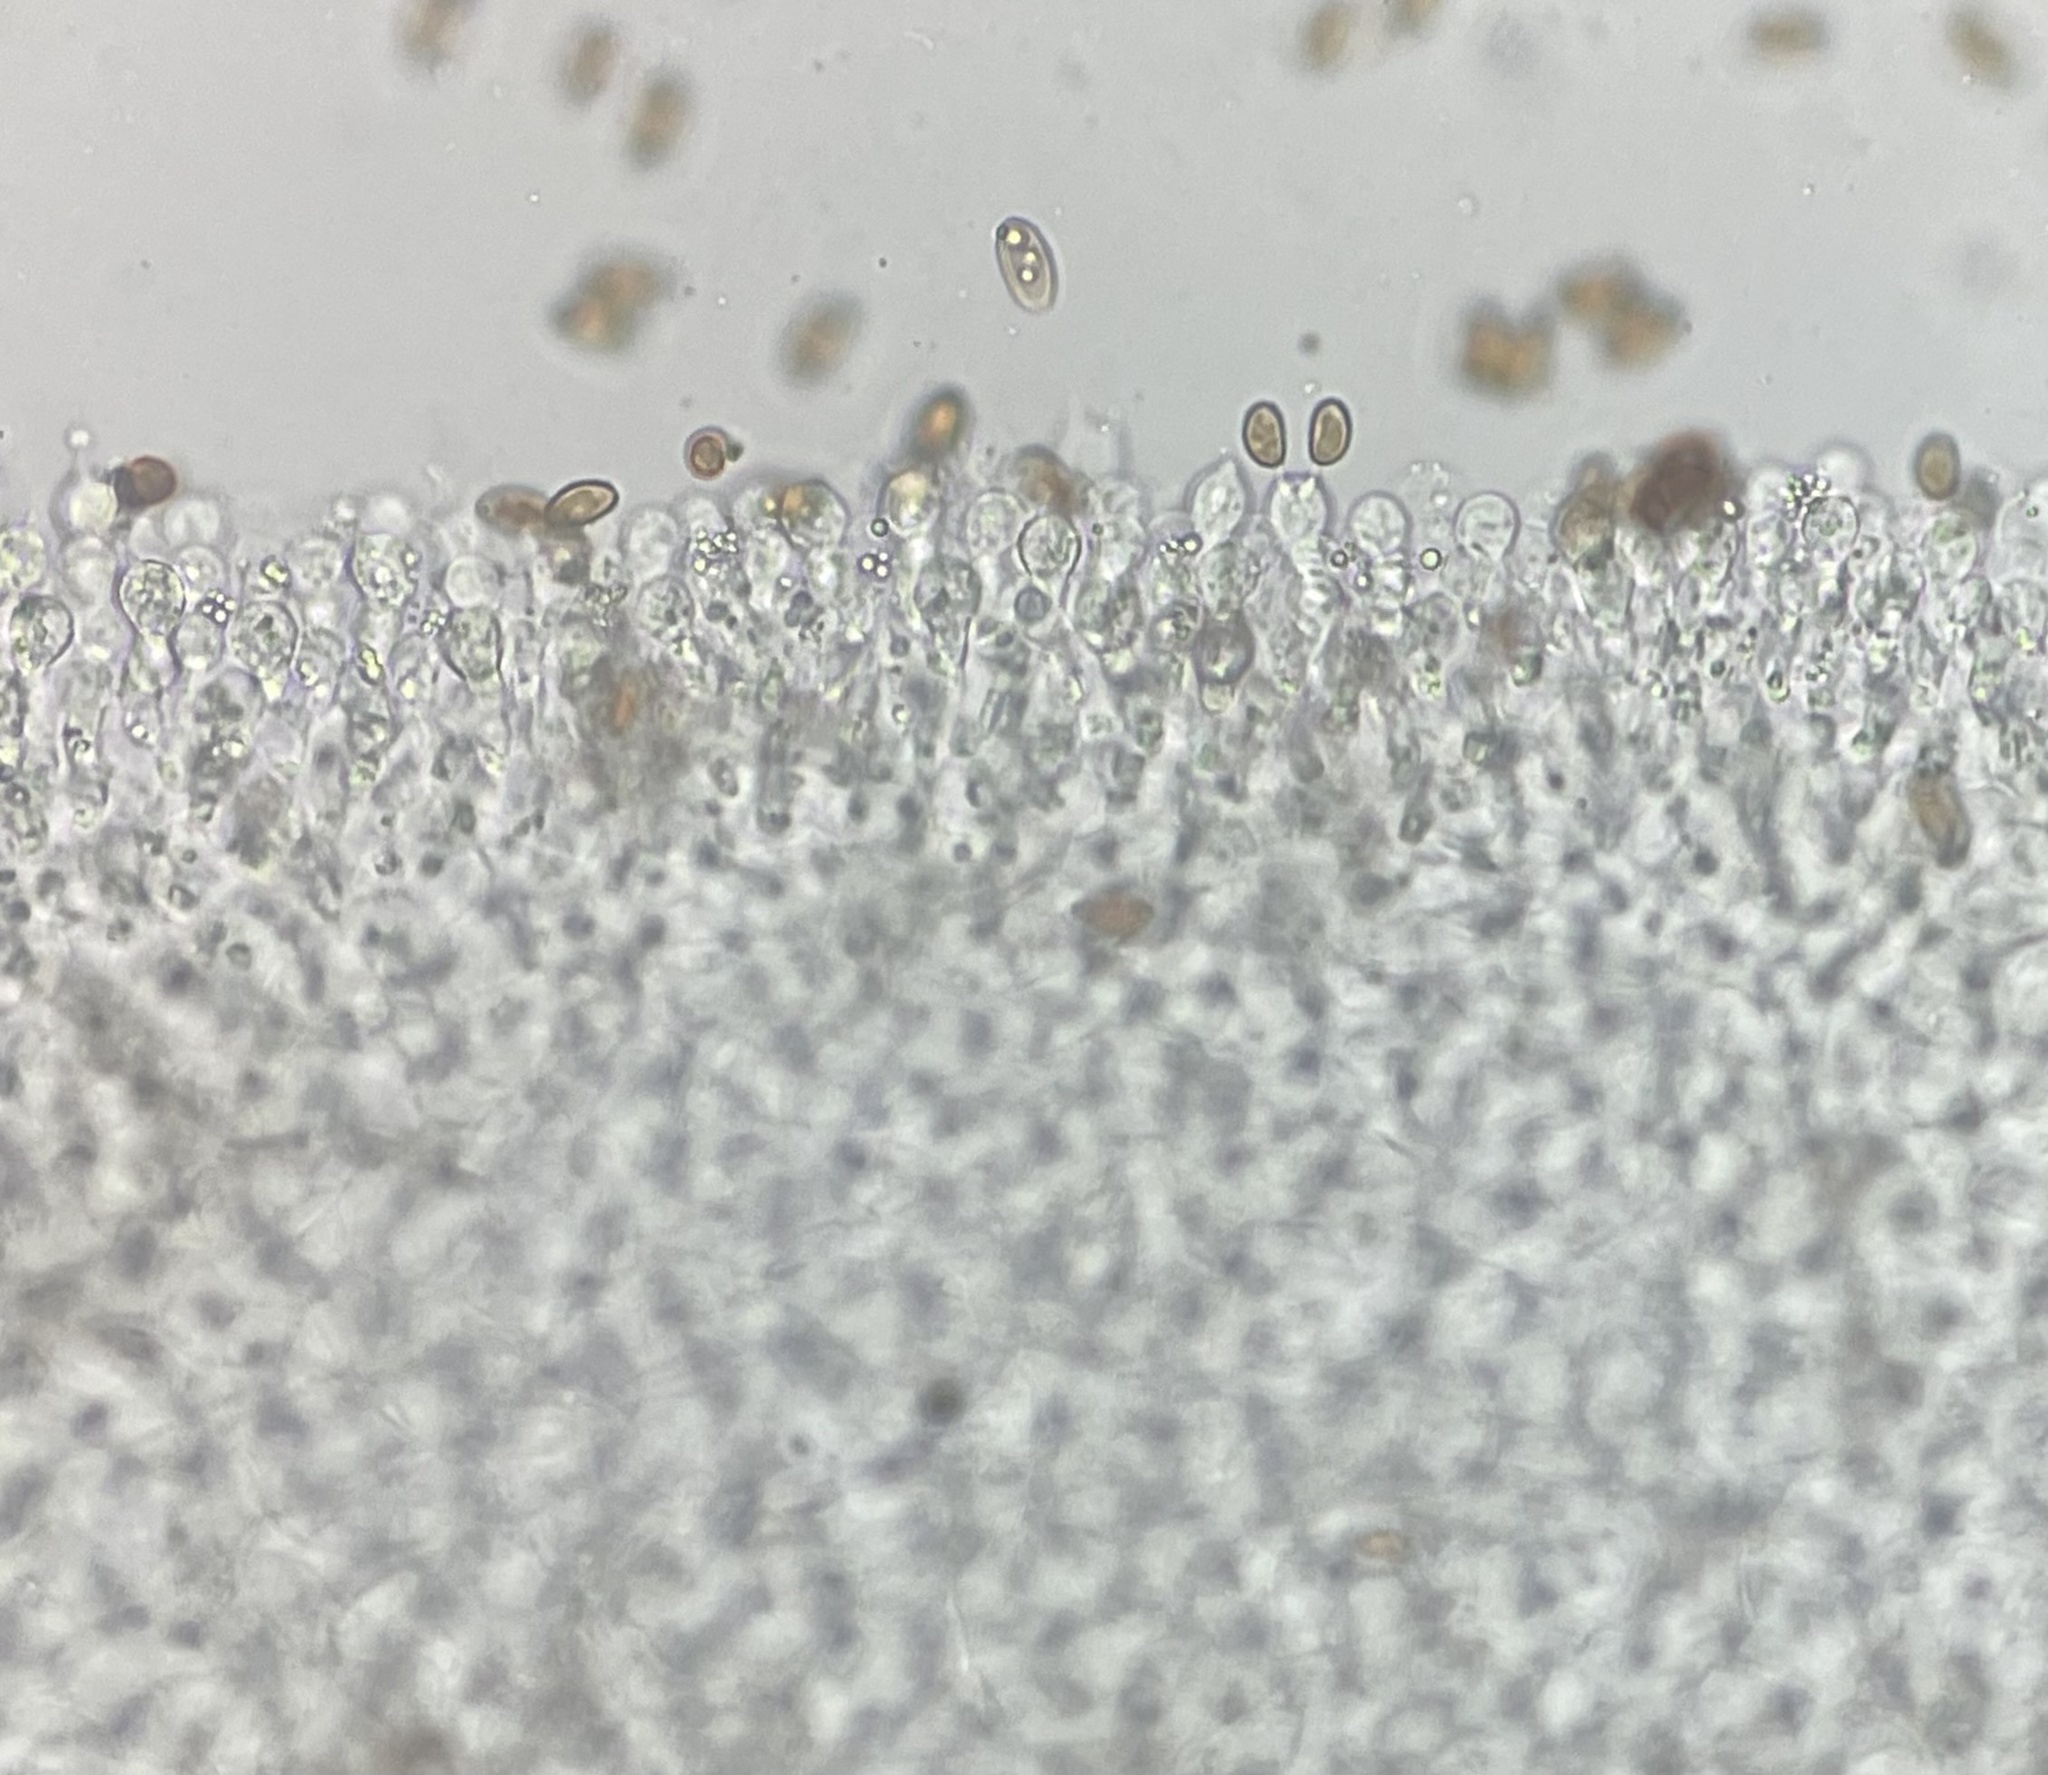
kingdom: Fungi
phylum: Basidiomycota
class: Agaricomycetes
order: Agaricales
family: Bolbitiaceae
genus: Bolbitius
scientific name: Bolbitius reticulatus
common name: Netted fieldcap
